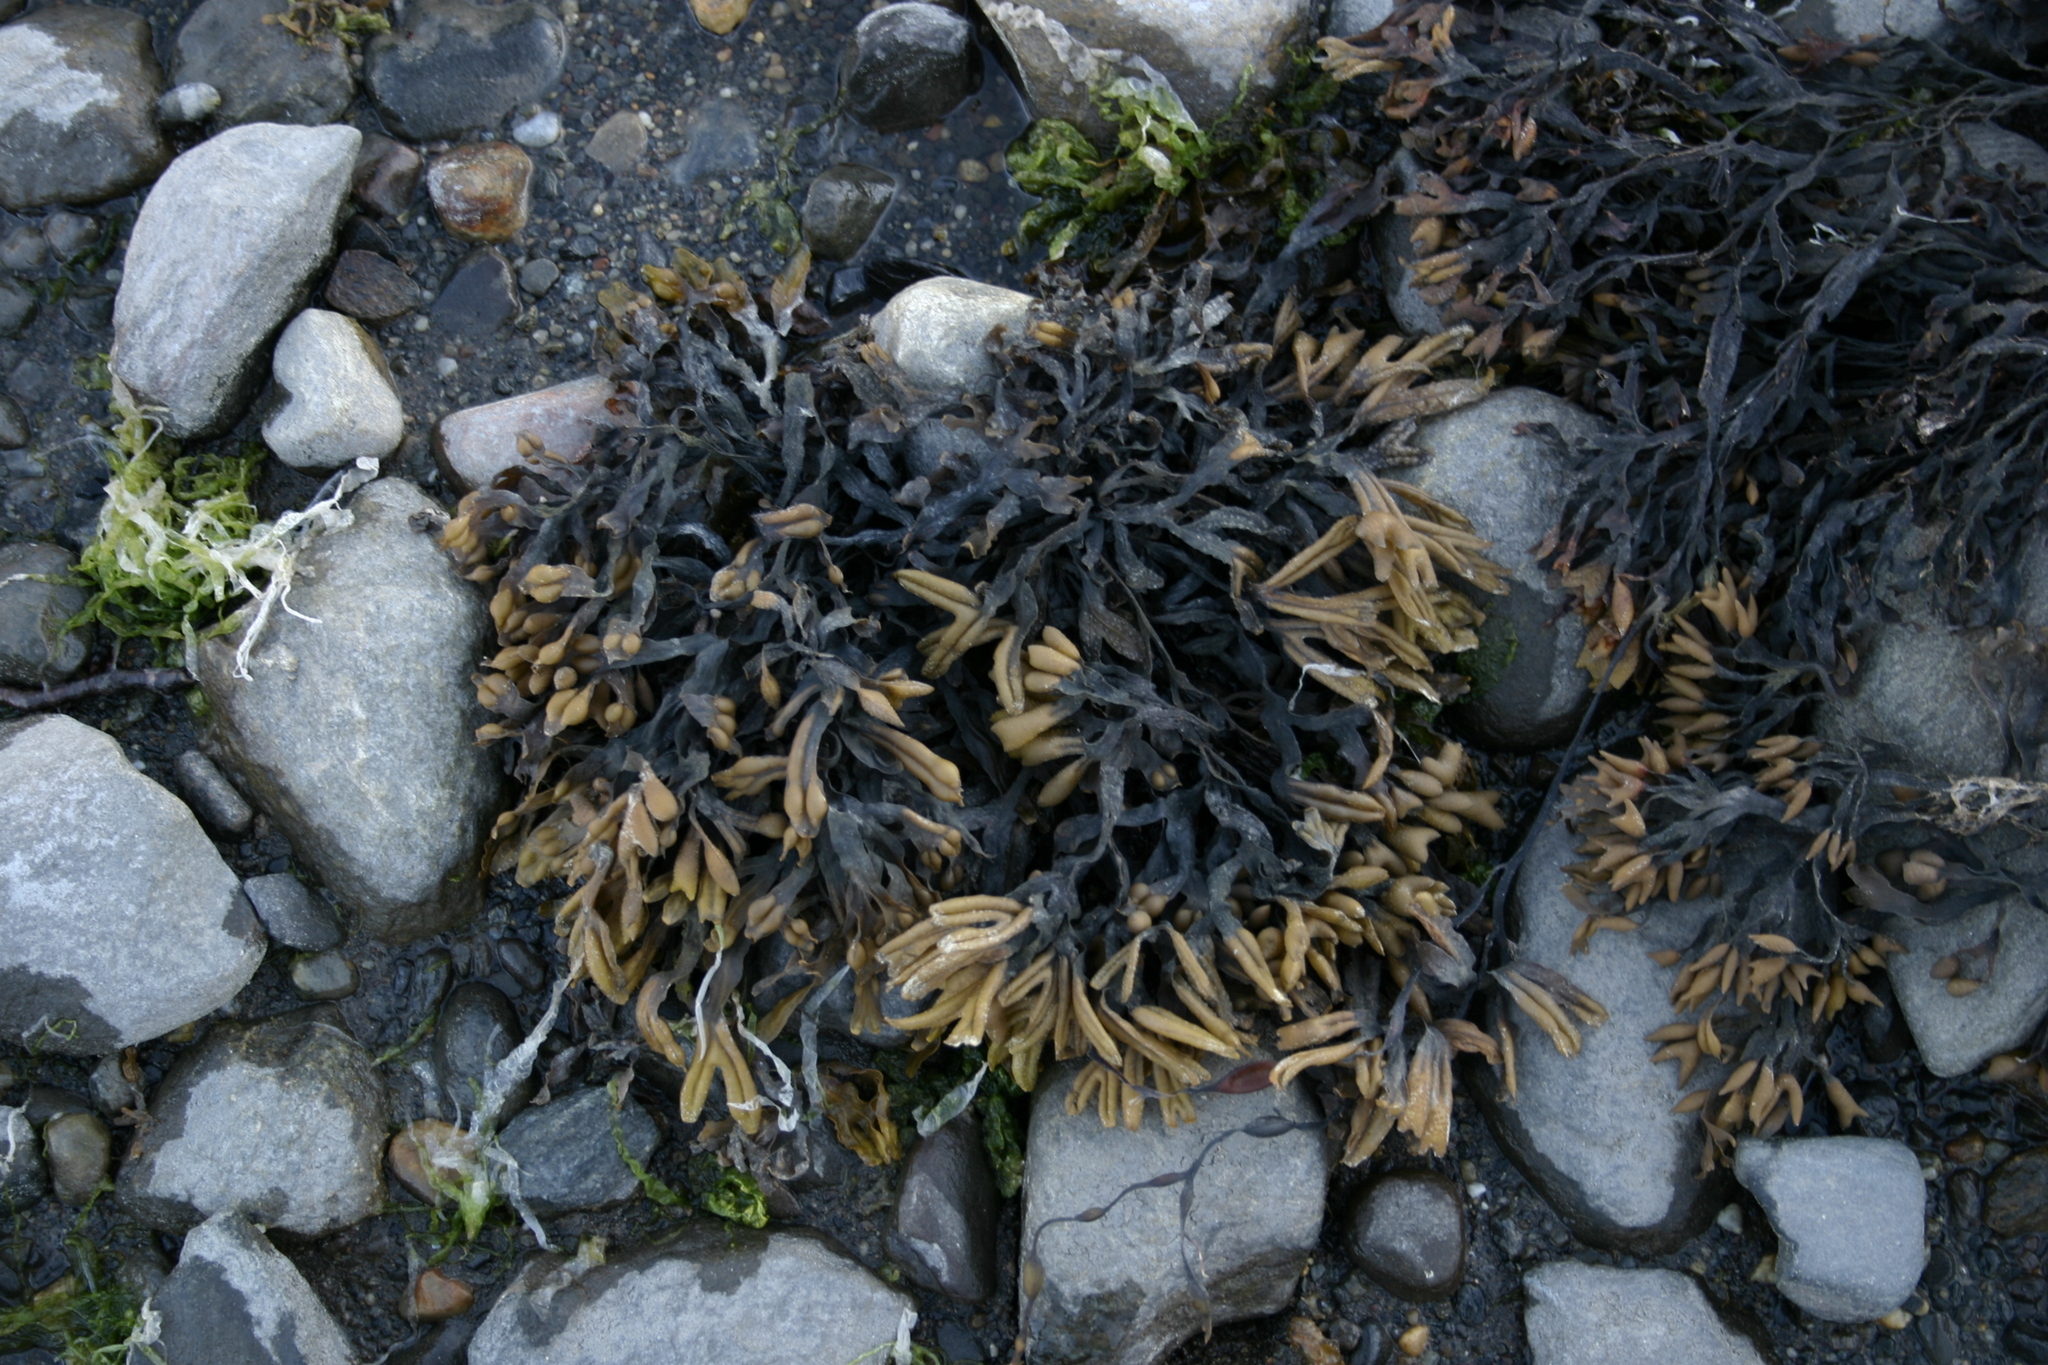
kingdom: Chromista
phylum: Ochrophyta
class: Phaeophyceae
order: Fucales
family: Fucaceae
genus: Fucus
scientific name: Fucus ceranoides
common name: Horned wrack
